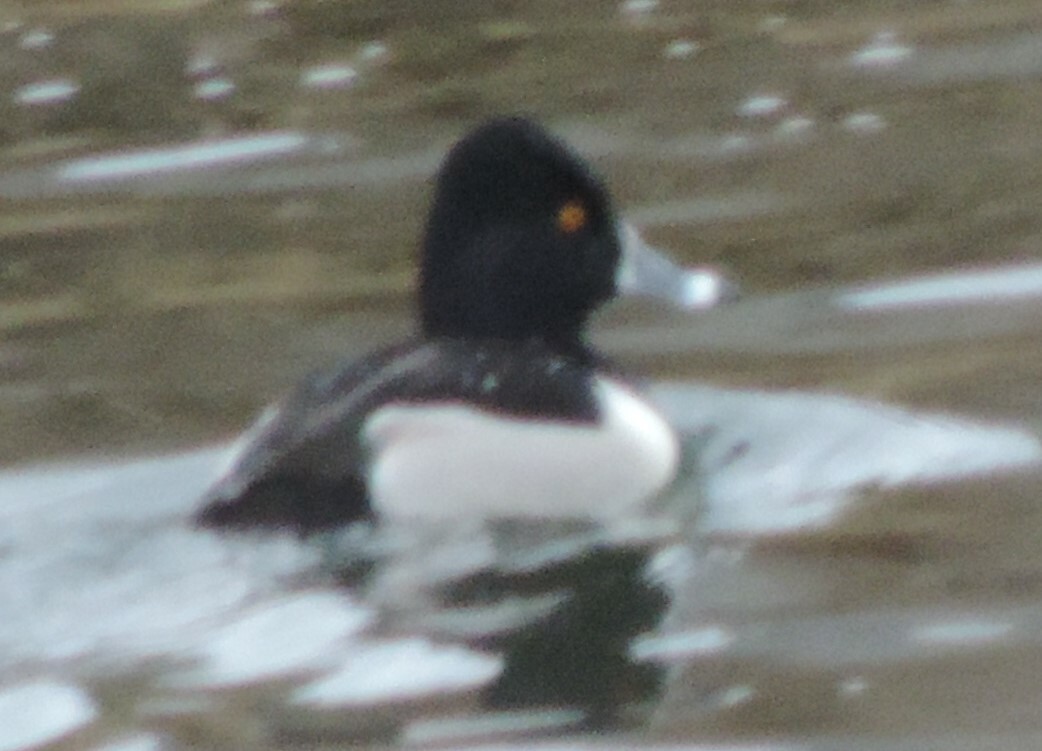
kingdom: Animalia
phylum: Chordata
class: Aves
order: Anseriformes
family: Anatidae
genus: Aythya
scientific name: Aythya collaris
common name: Ring-necked duck
